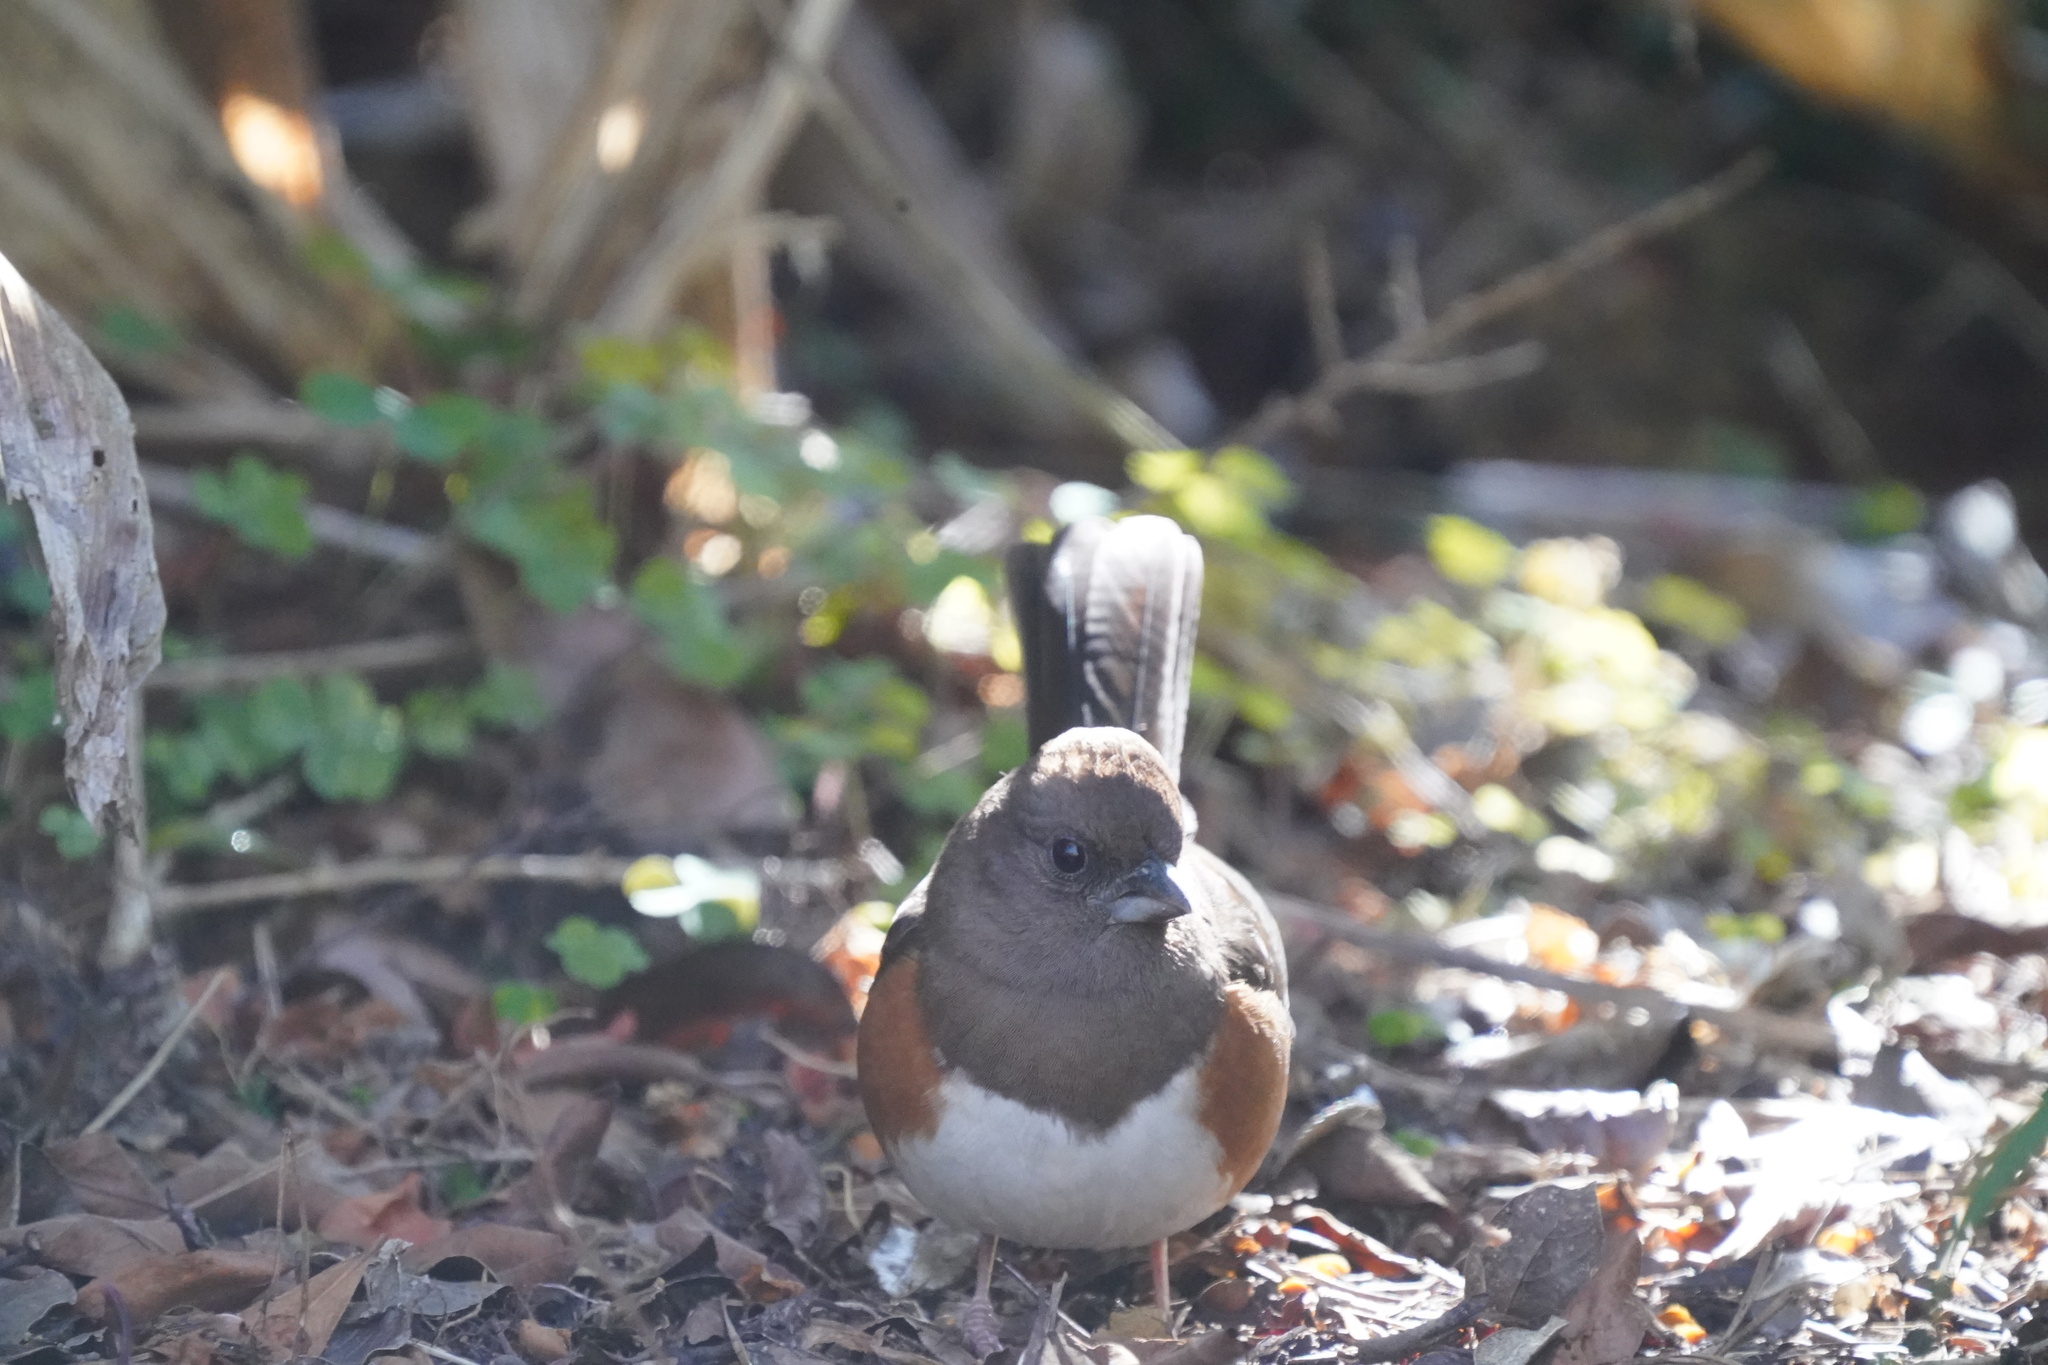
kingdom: Animalia
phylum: Chordata
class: Aves
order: Passeriformes
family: Passerellidae
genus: Pipilo
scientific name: Pipilo erythrophthalmus
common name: Eastern towhee
